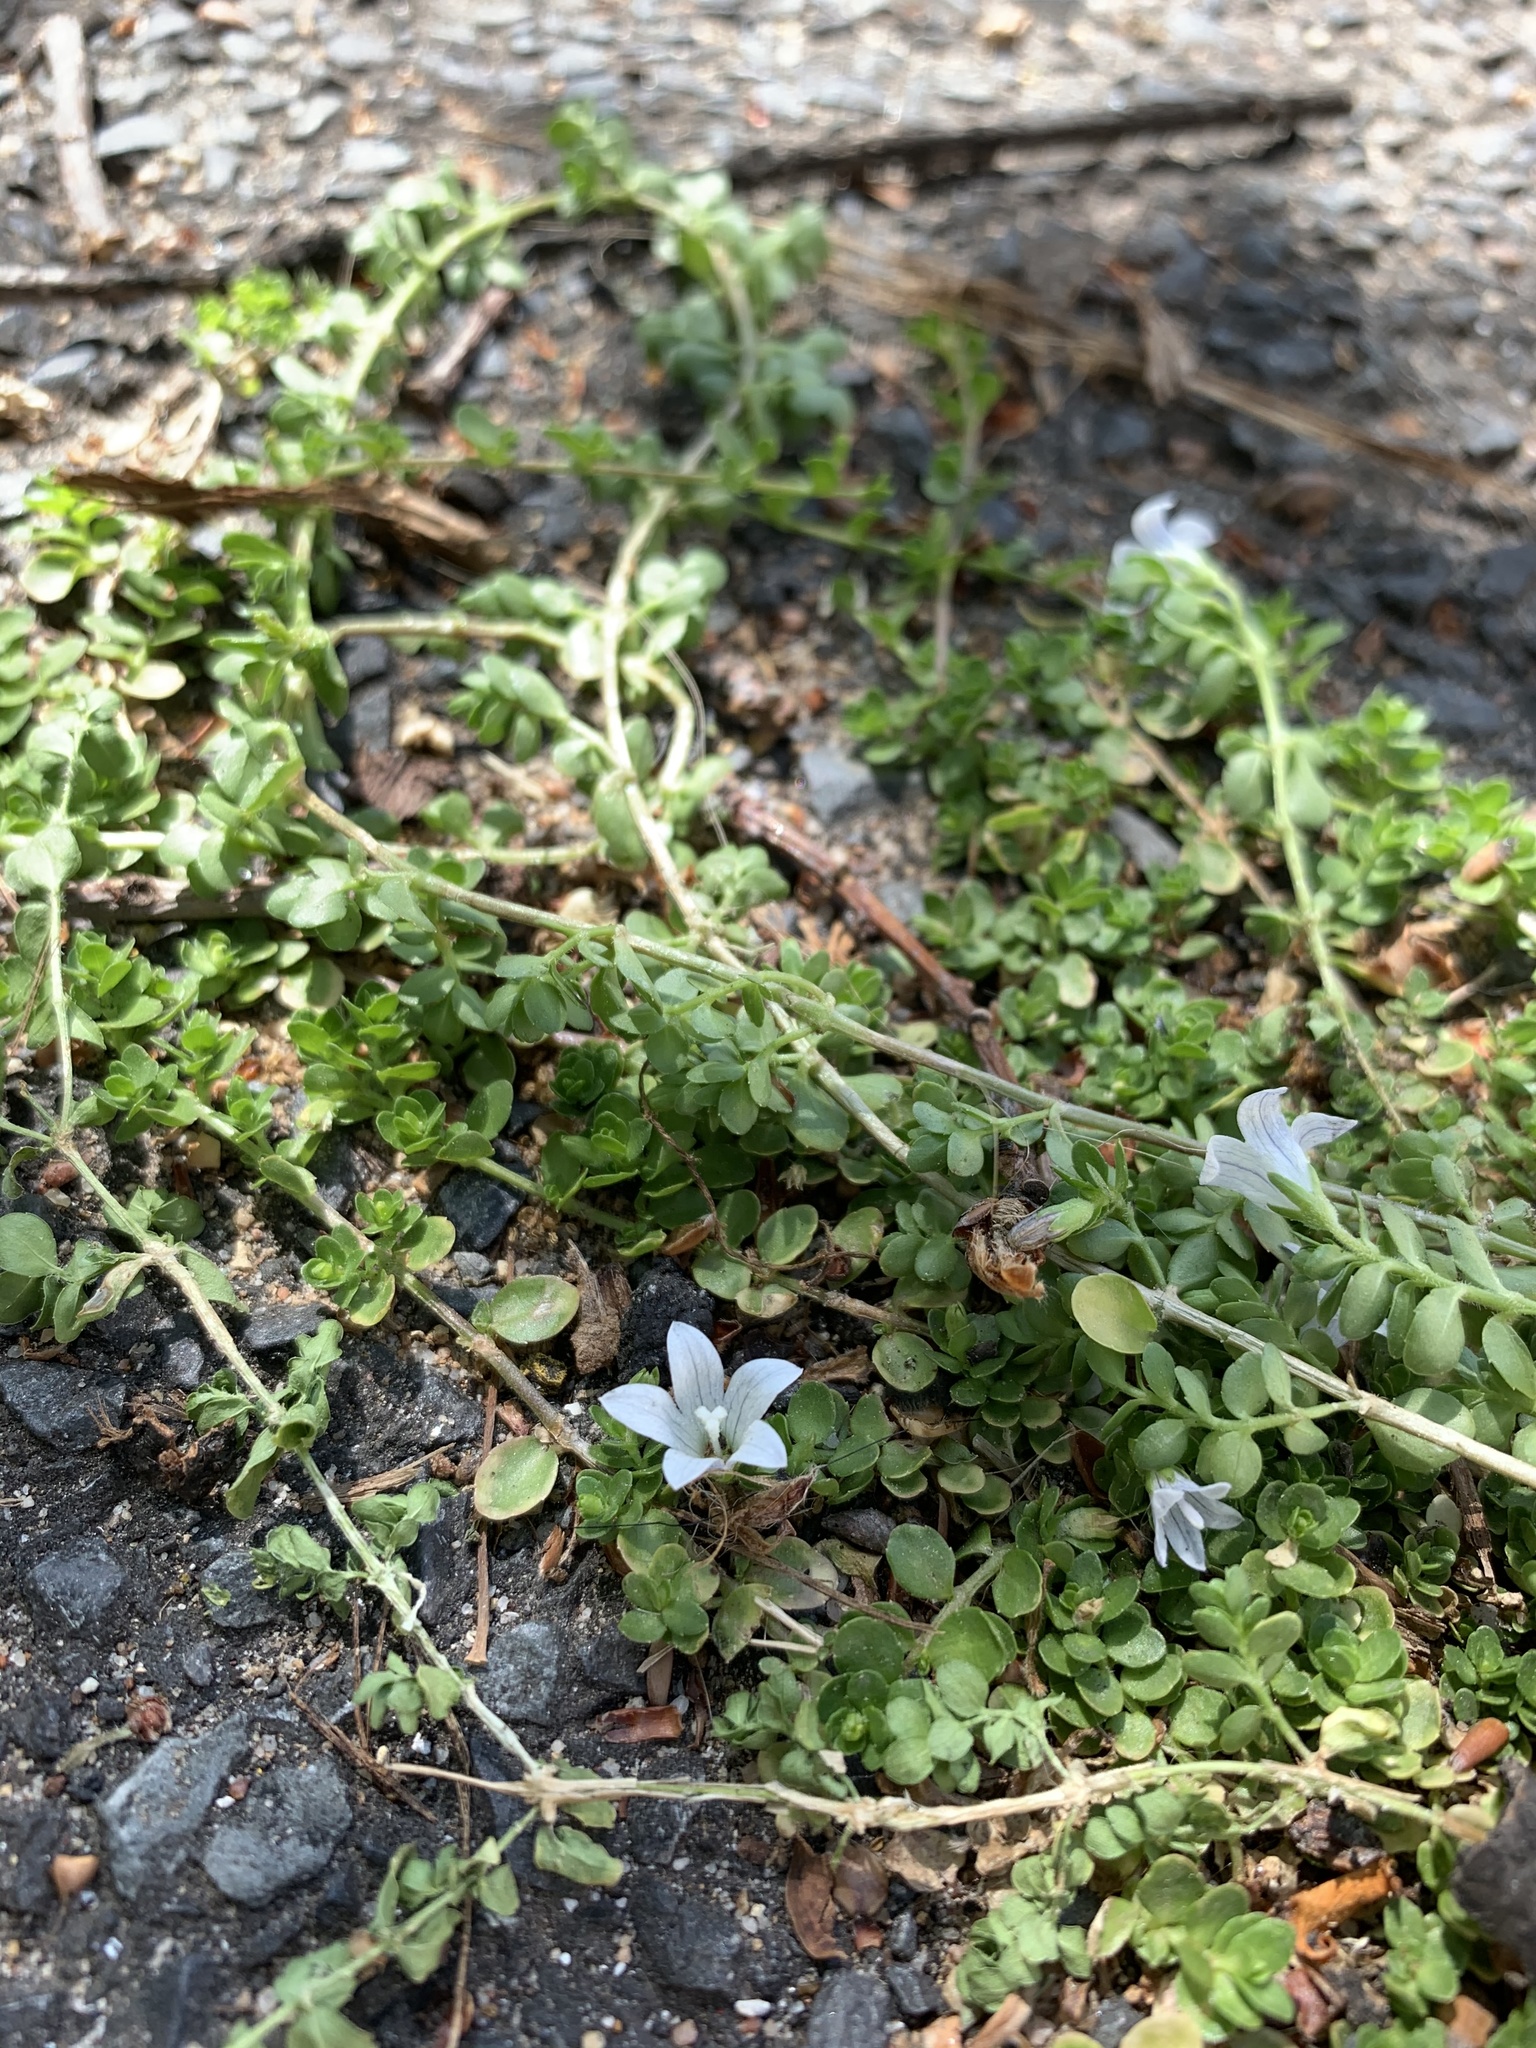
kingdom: Plantae
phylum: Tracheophyta
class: Magnoliopsida
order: Asterales
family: Campanulaceae
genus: Wahlenbergia
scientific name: Wahlenbergia procumbens
